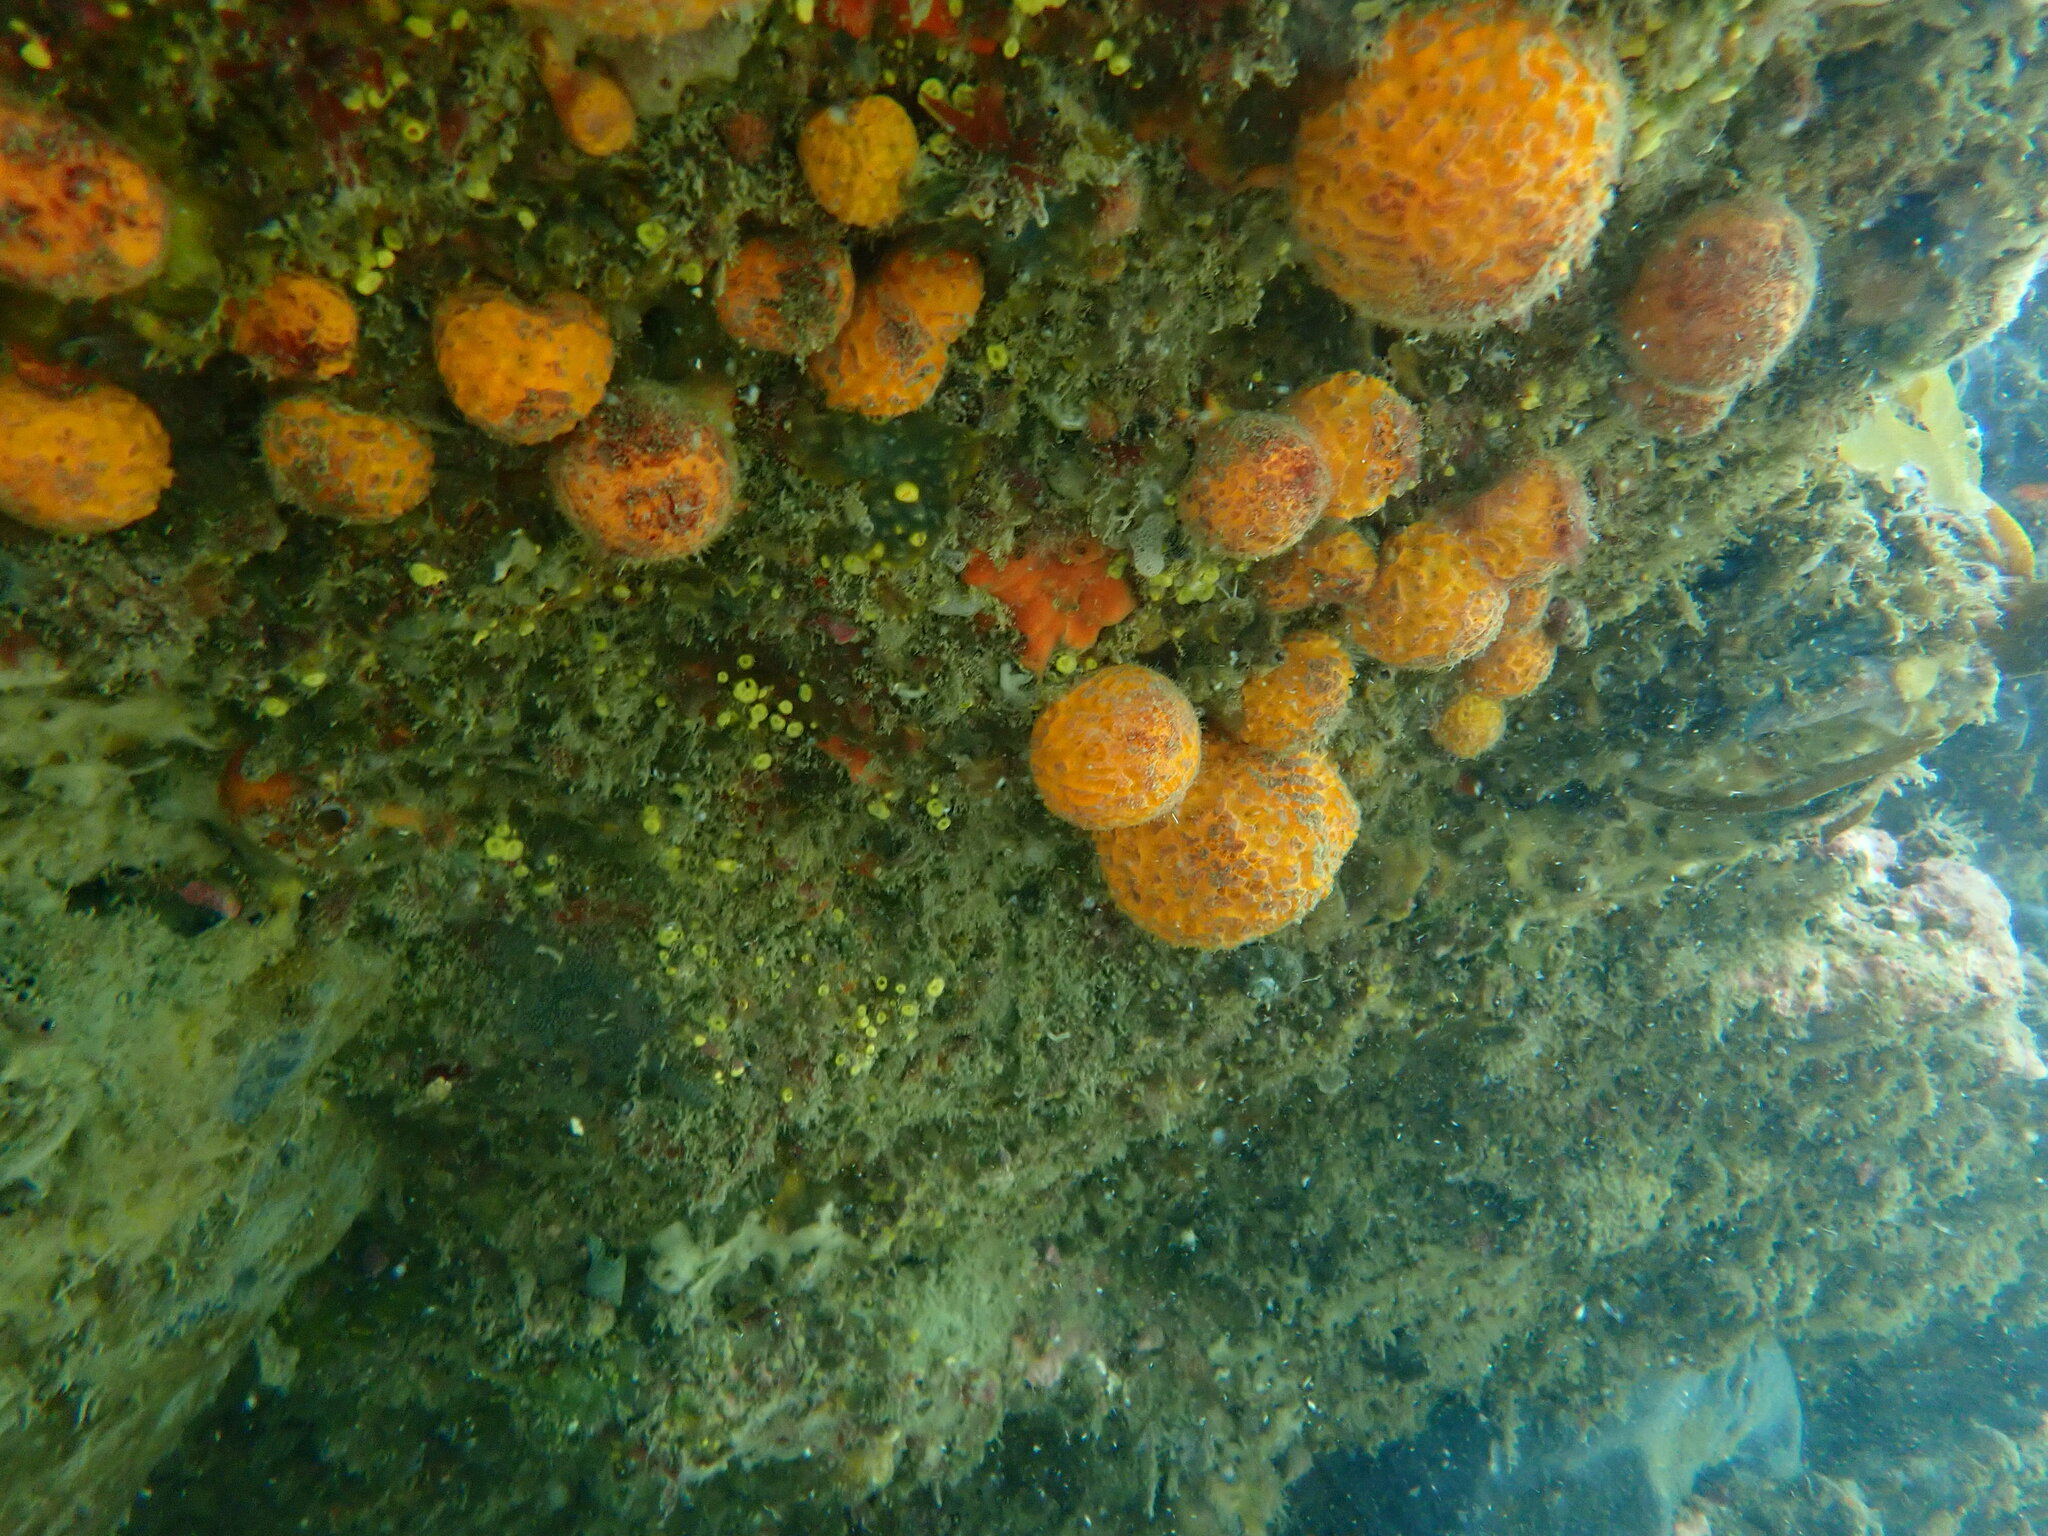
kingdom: Animalia
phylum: Porifera
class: Demospongiae
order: Tethyida
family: Tethyidae
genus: Tethya
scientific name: Tethya burtoni
